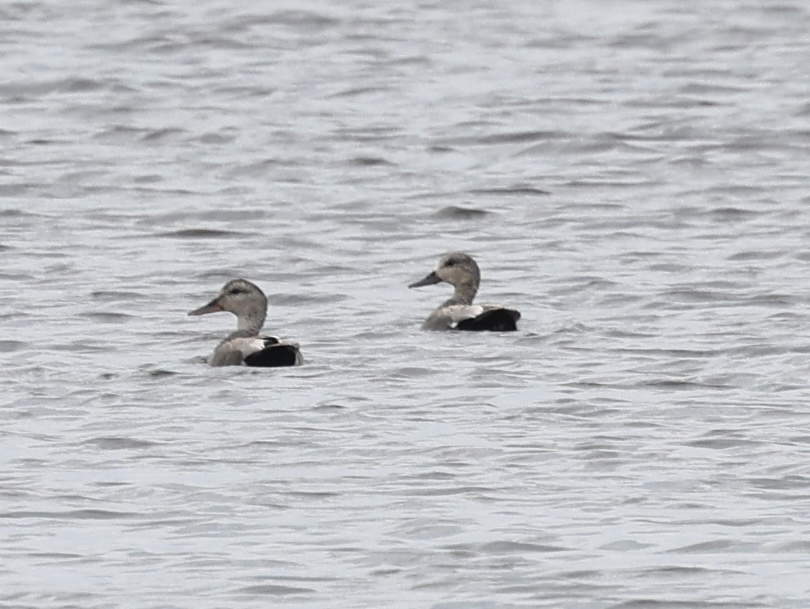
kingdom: Animalia
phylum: Chordata
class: Aves
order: Anseriformes
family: Anatidae
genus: Mareca
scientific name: Mareca strepera
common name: Gadwall
